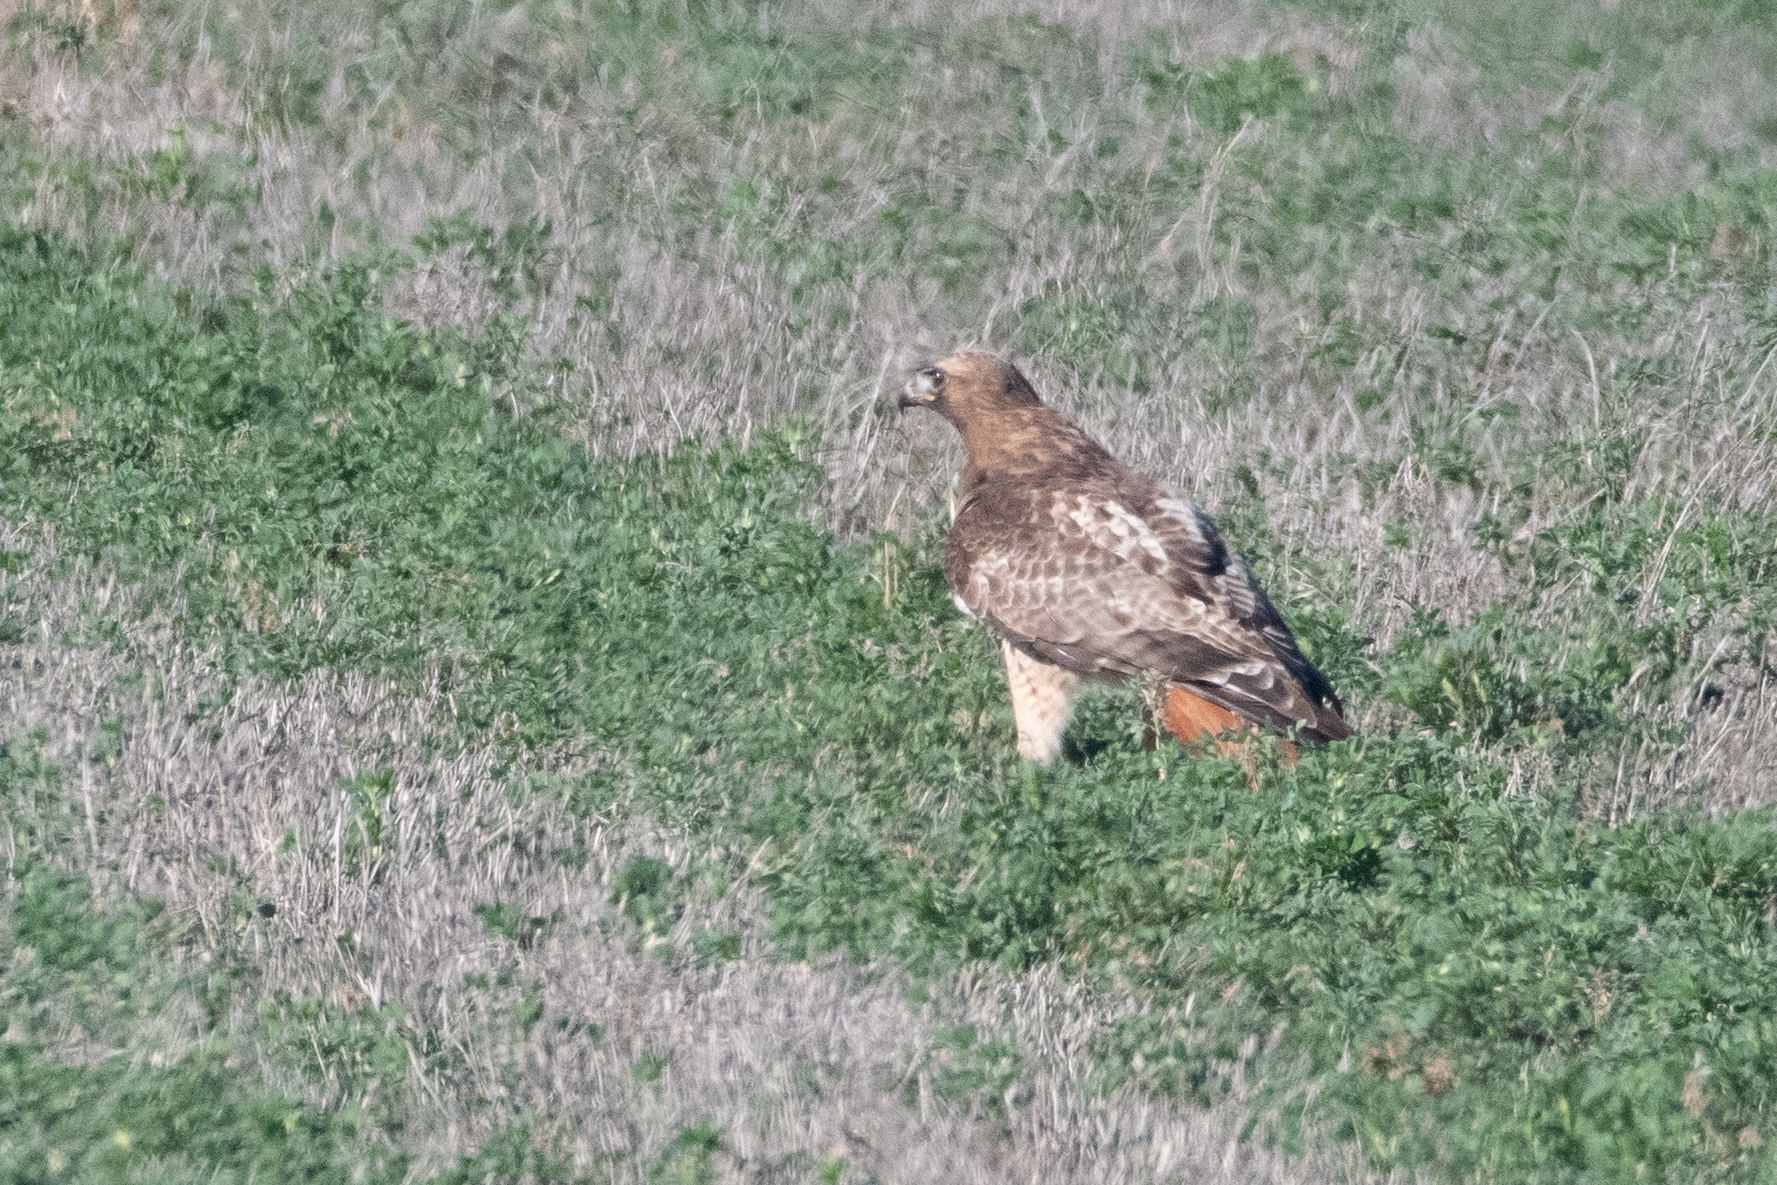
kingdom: Animalia
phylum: Chordata
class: Aves
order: Accipitriformes
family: Accipitridae
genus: Buteo
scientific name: Buteo jamaicensis
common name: Red-tailed hawk
